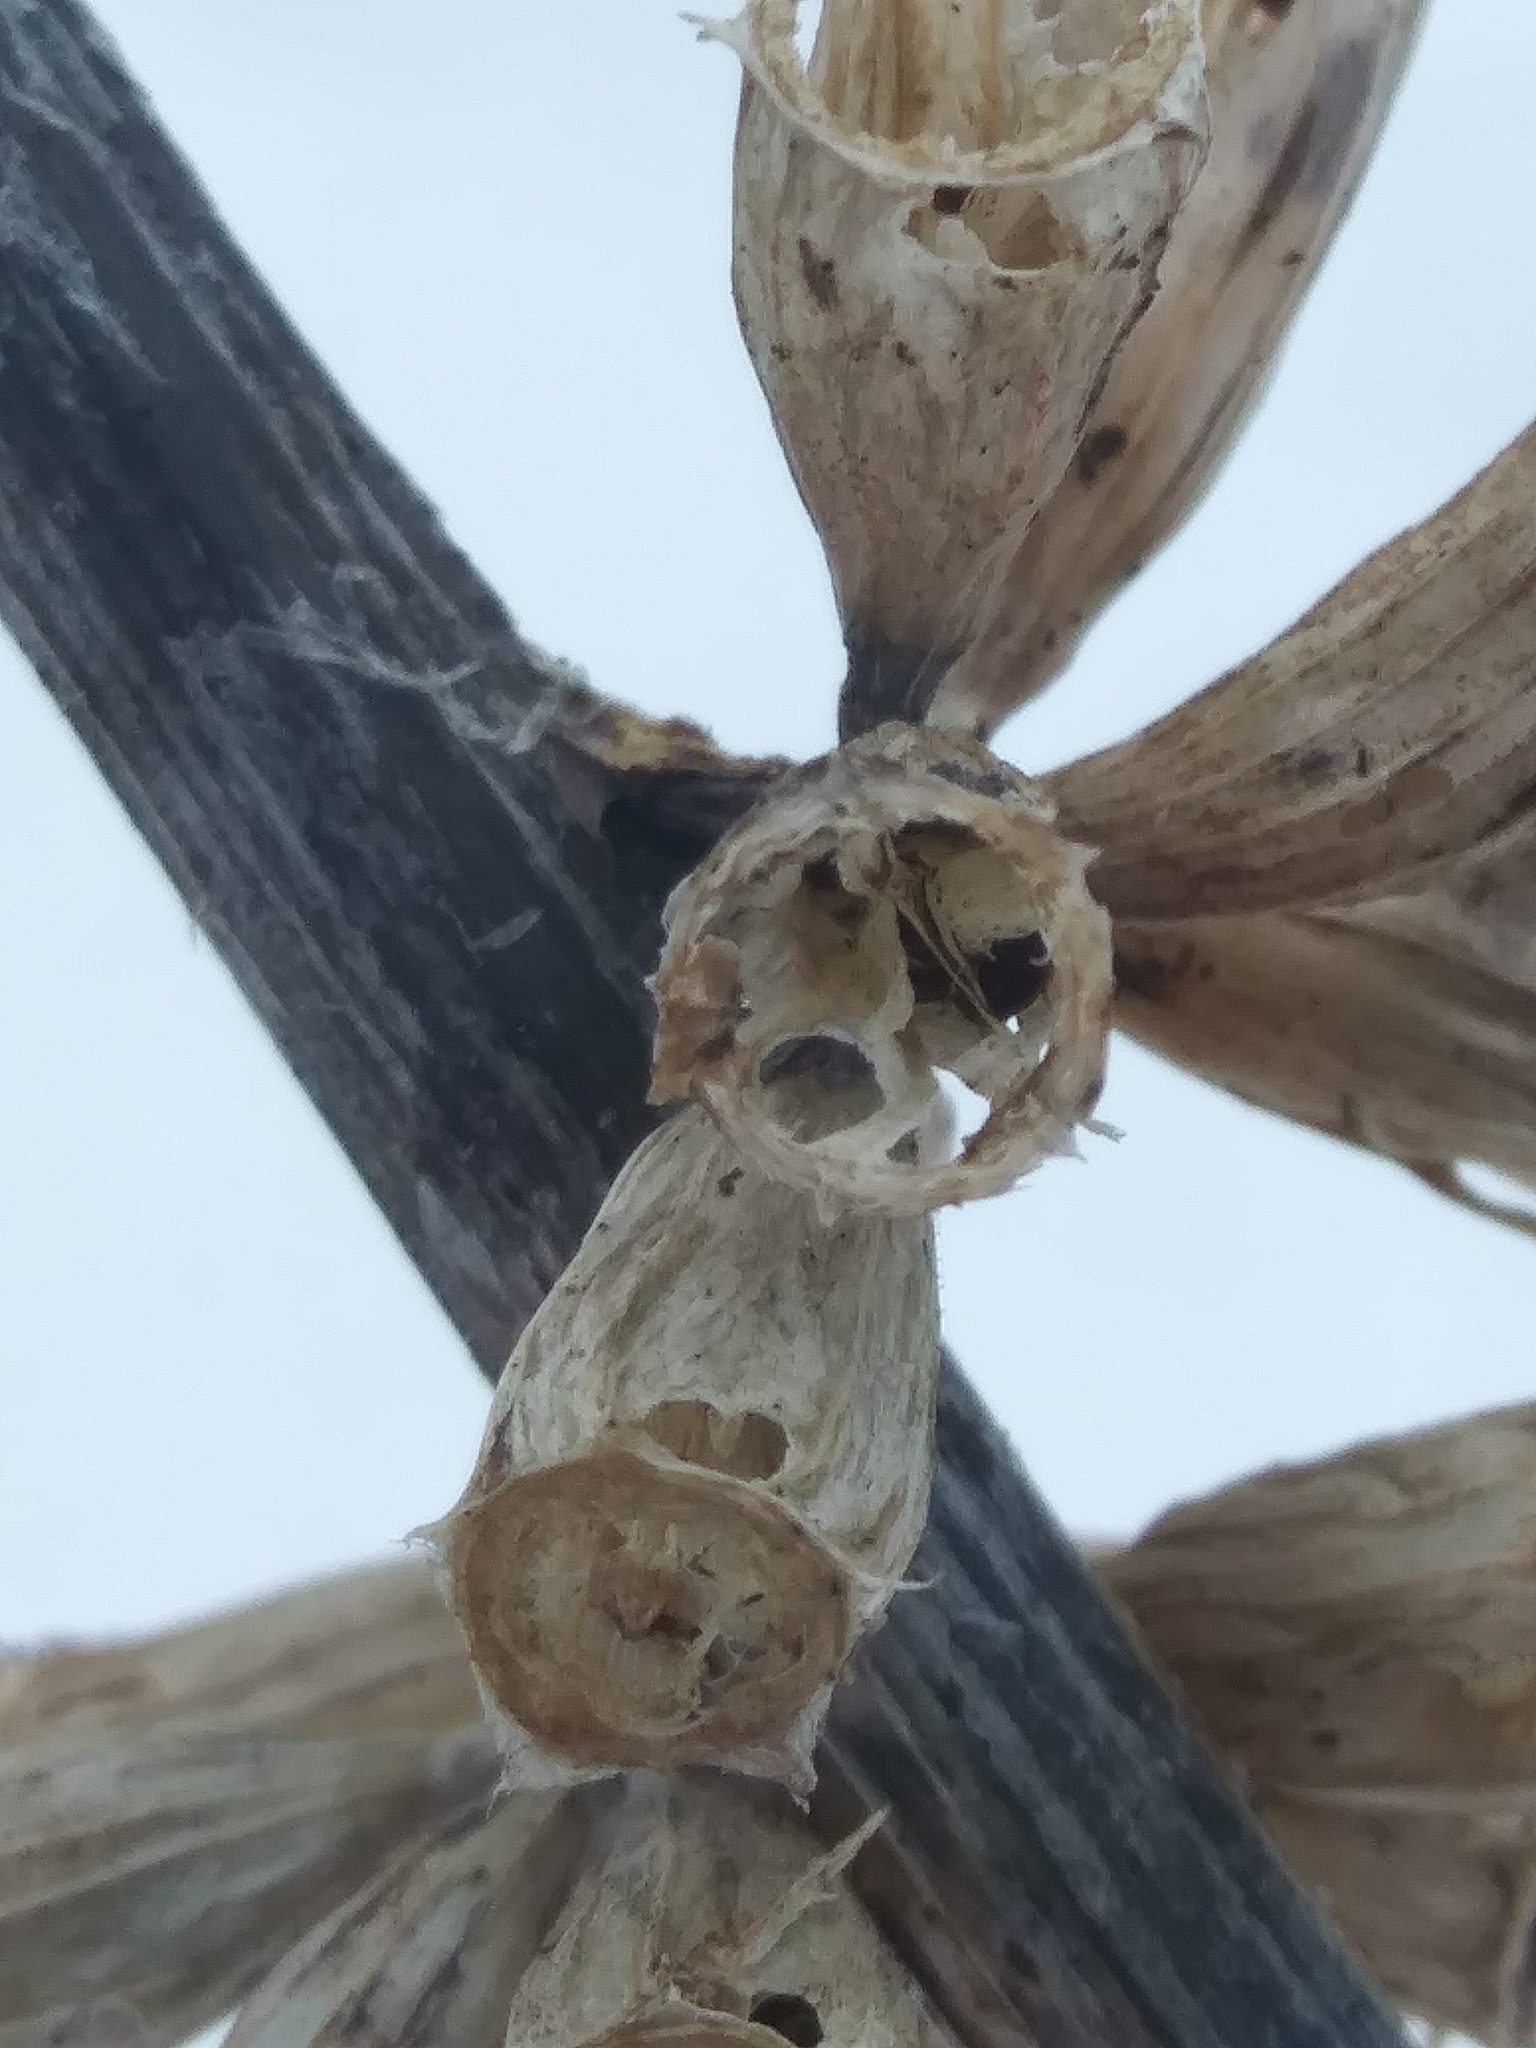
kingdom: Plantae
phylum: Tracheophyta
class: Magnoliopsida
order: Asterales
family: Campanulaceae
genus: Campanulastrum
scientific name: Campanulastrum americanum
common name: American bellflower
